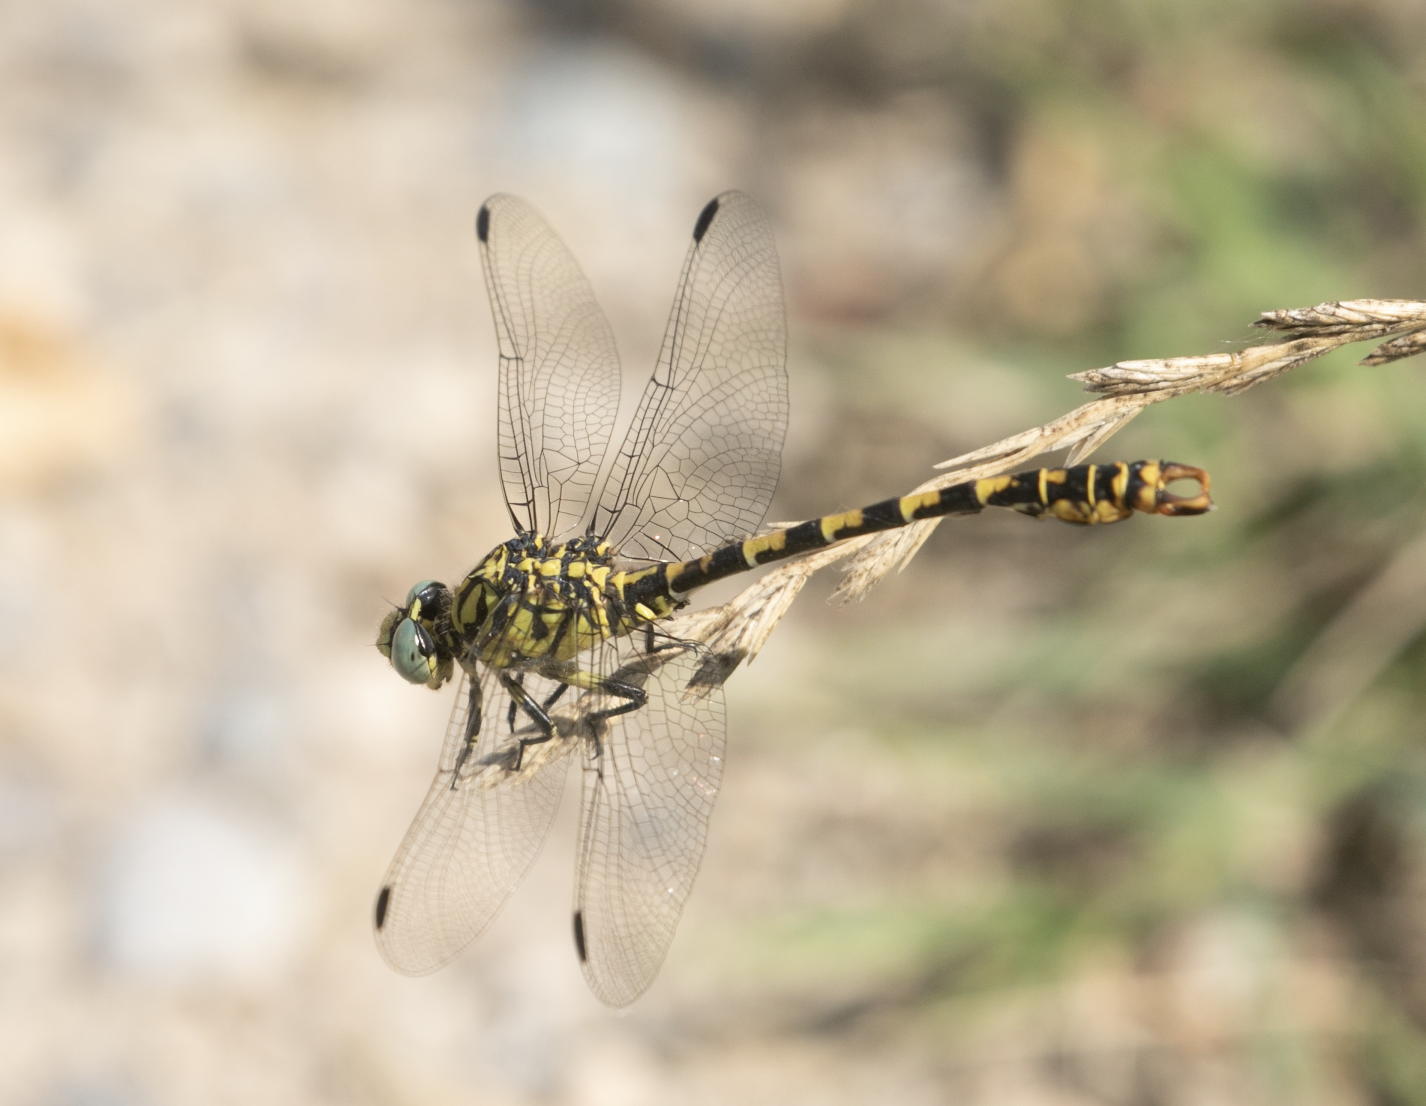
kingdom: Animalia
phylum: Arthropoda
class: Insecta
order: Odonata
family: Gomphidae
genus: Onychogomphus
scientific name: Onychogomphus forcipatus
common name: Small pincertail
